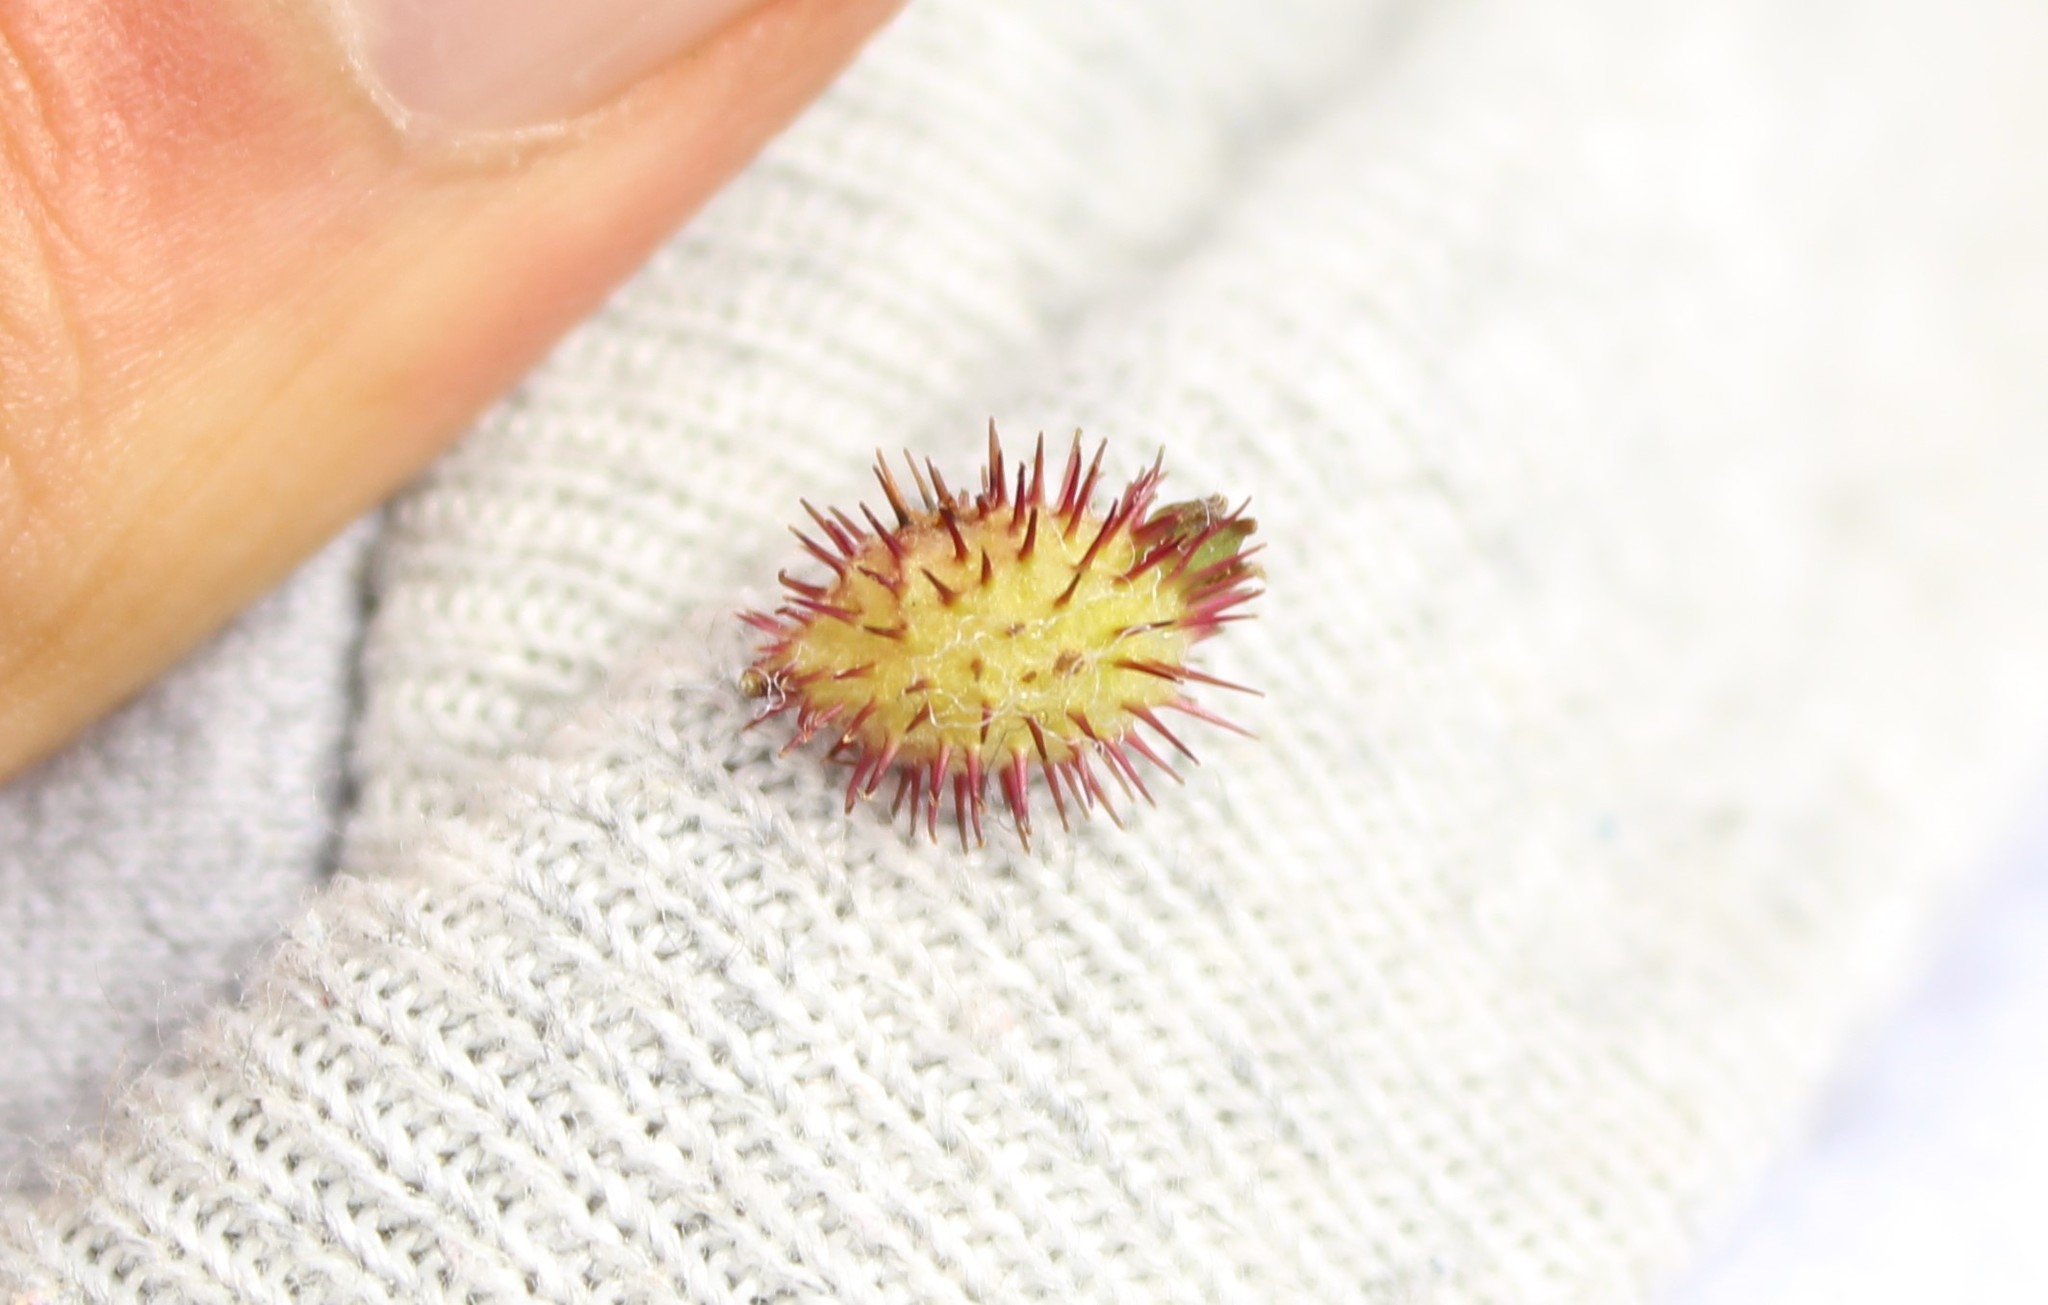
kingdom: Plantae
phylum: Tracheophyta
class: Magnoliopsida
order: Rosales
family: Rosaceae
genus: Acaena
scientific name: Acaena elongata
